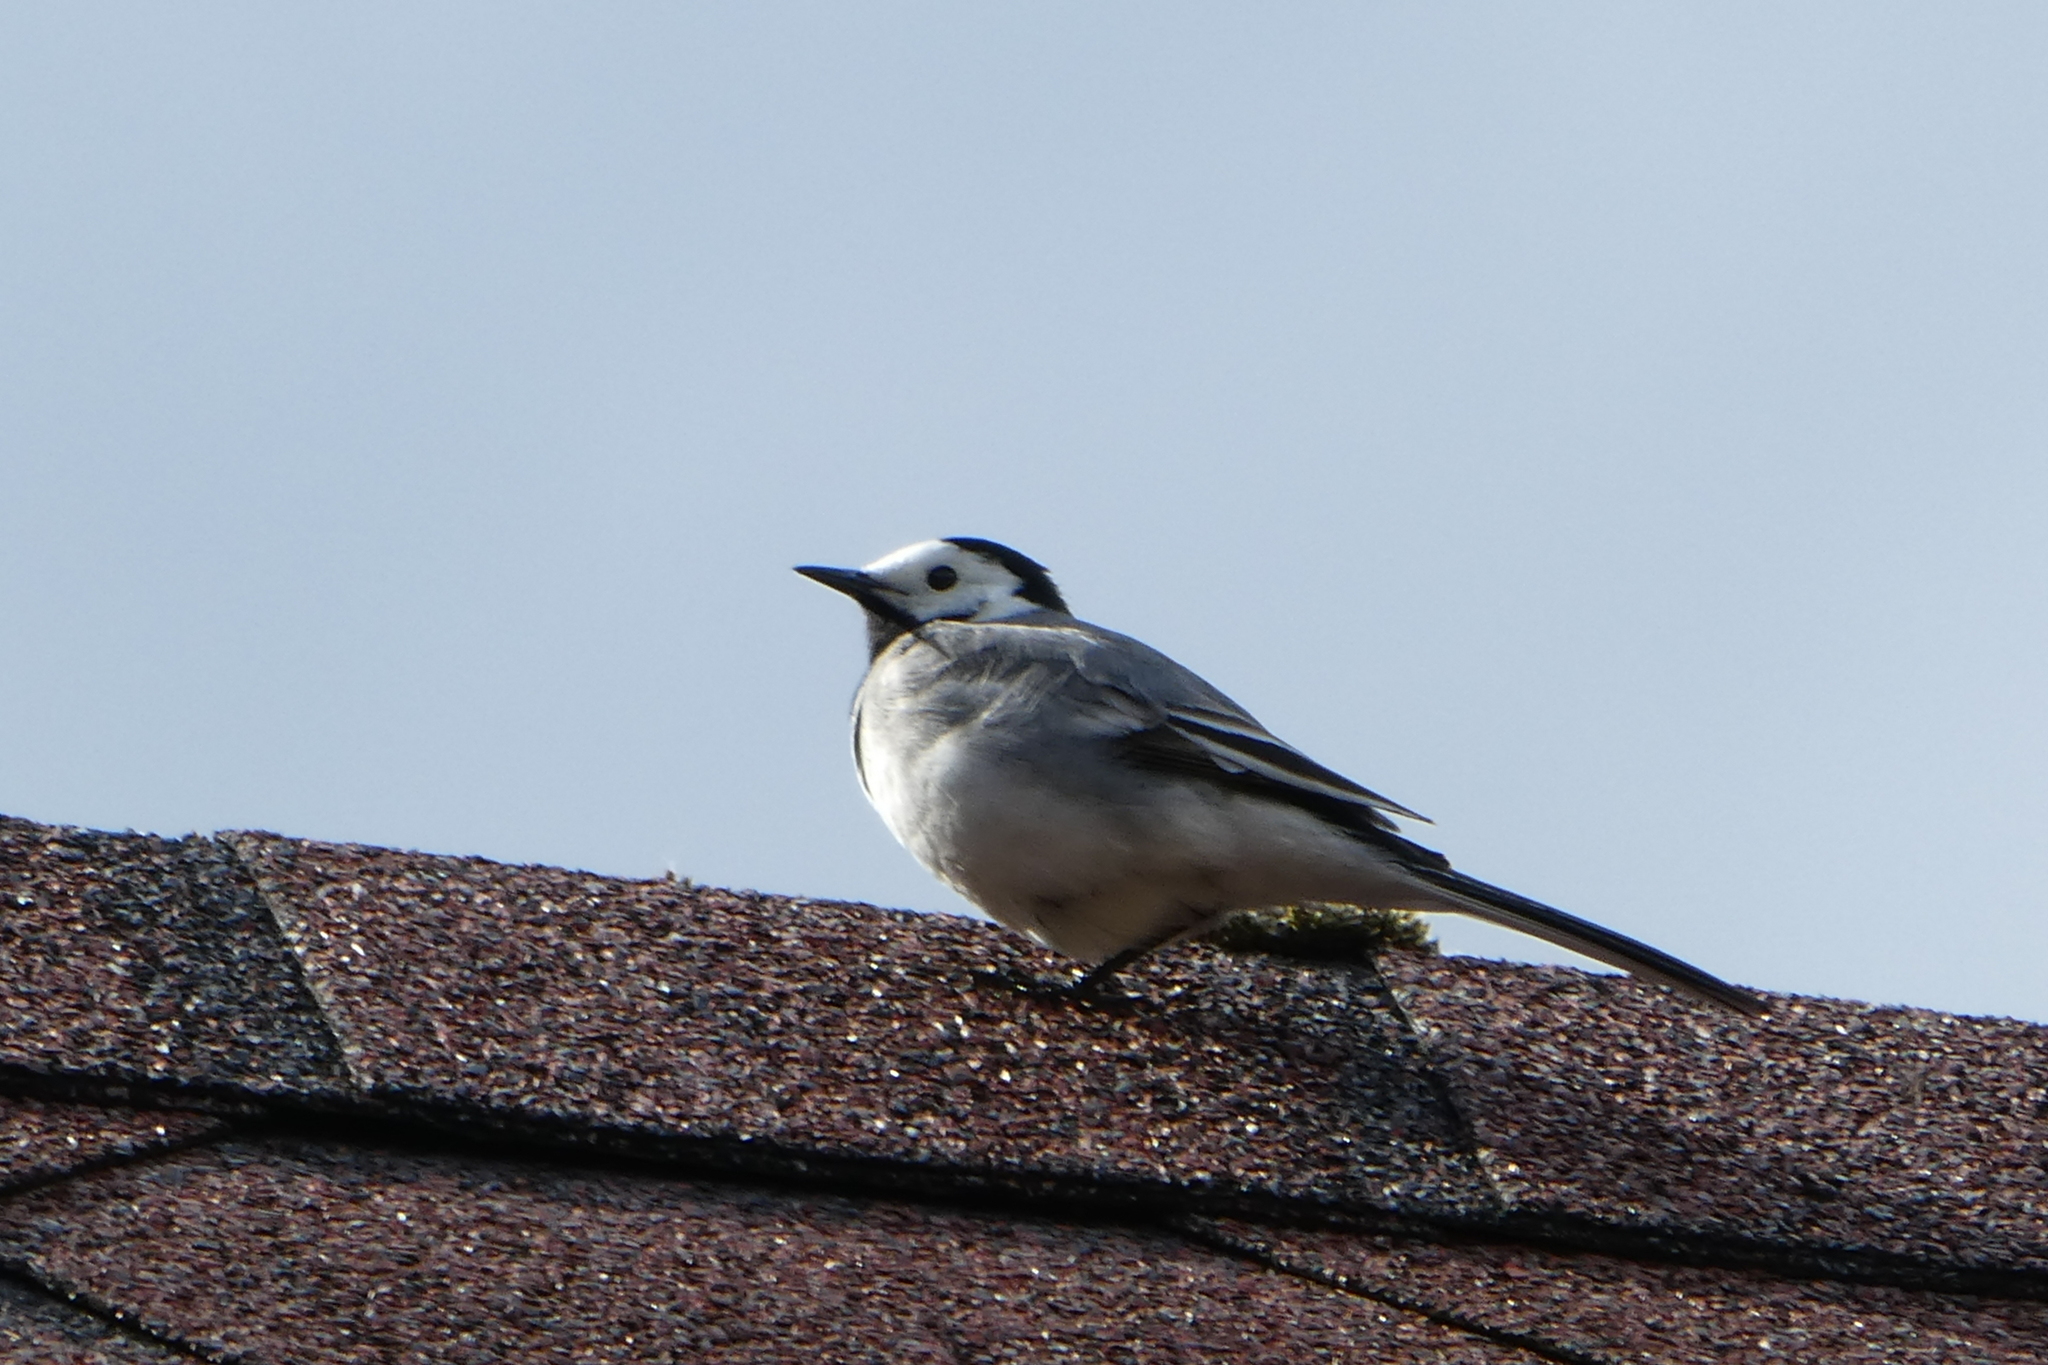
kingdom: Animalia
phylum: Chordata
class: Aves
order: Passeriformes
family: Motacillidae
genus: Motacilla
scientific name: Motacilla alba
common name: White wagtail
